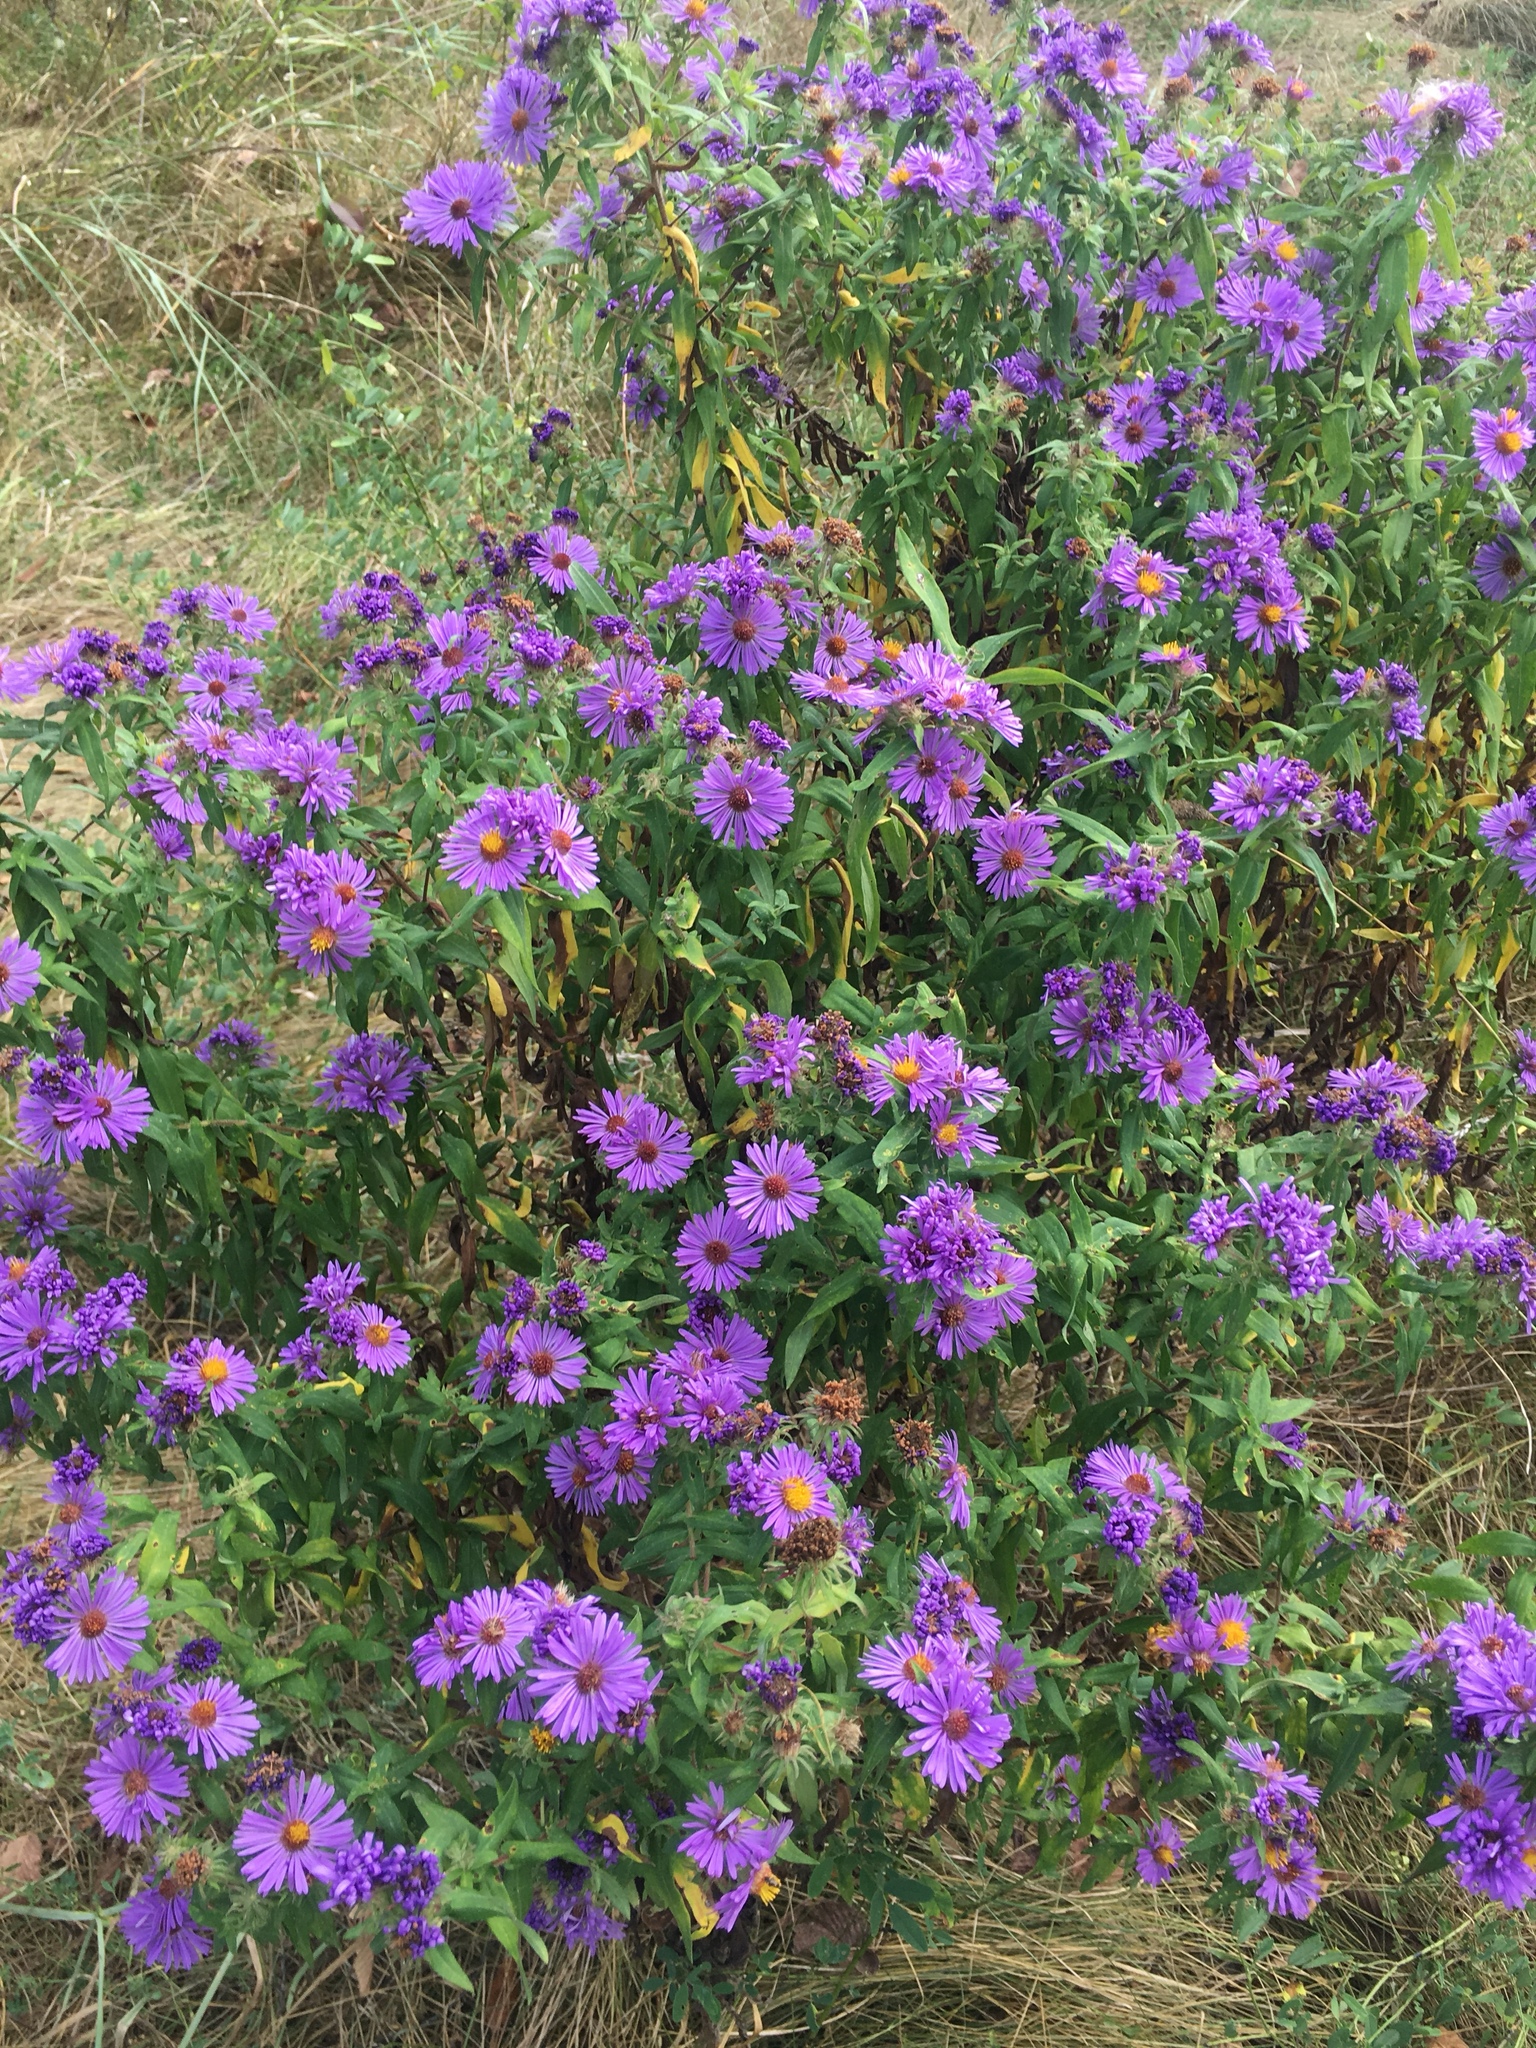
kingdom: Plantae
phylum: Tracheophyta
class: Magnoliopsida
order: Asterales
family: Asteraceae
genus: Symphyotrichum
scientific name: Symphyotrichum novae-angliae
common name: Michaelmas daisy
